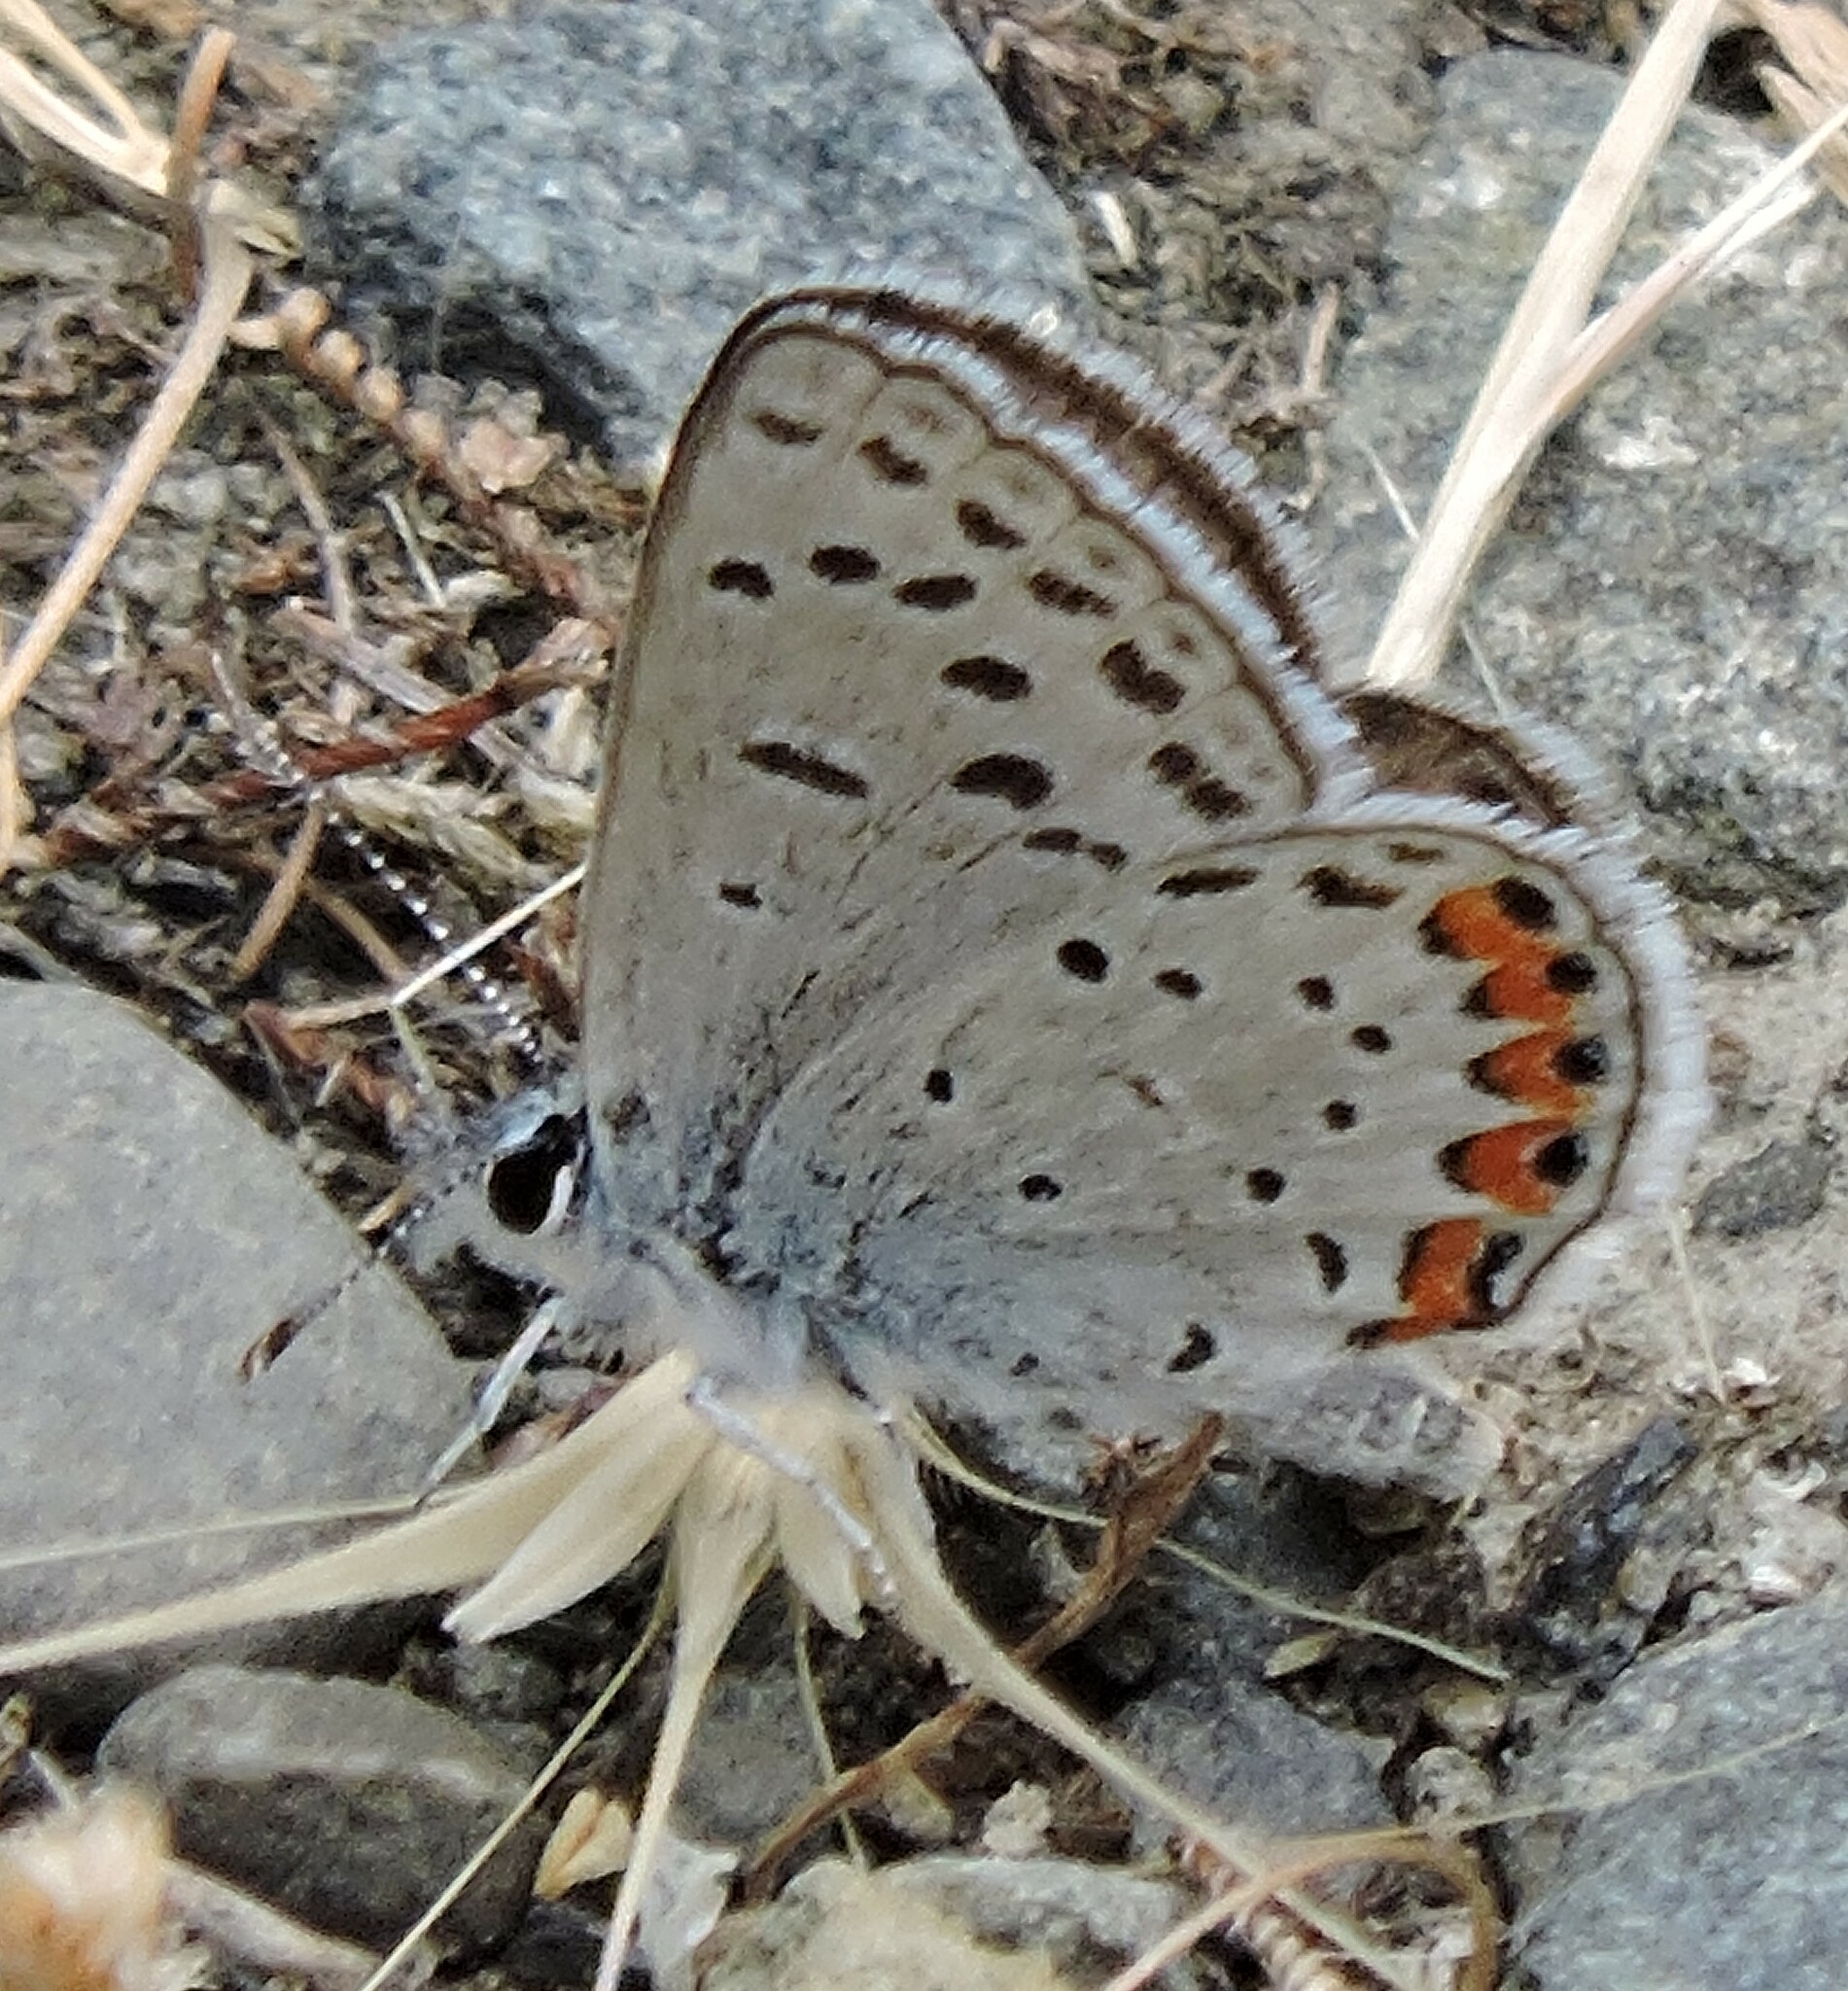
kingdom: Animalia
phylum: Arthropoda
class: Insecta
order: Lepidoptera
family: Lycaenidae
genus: Icaricia
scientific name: Icaricia acmon
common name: Acmon blue
